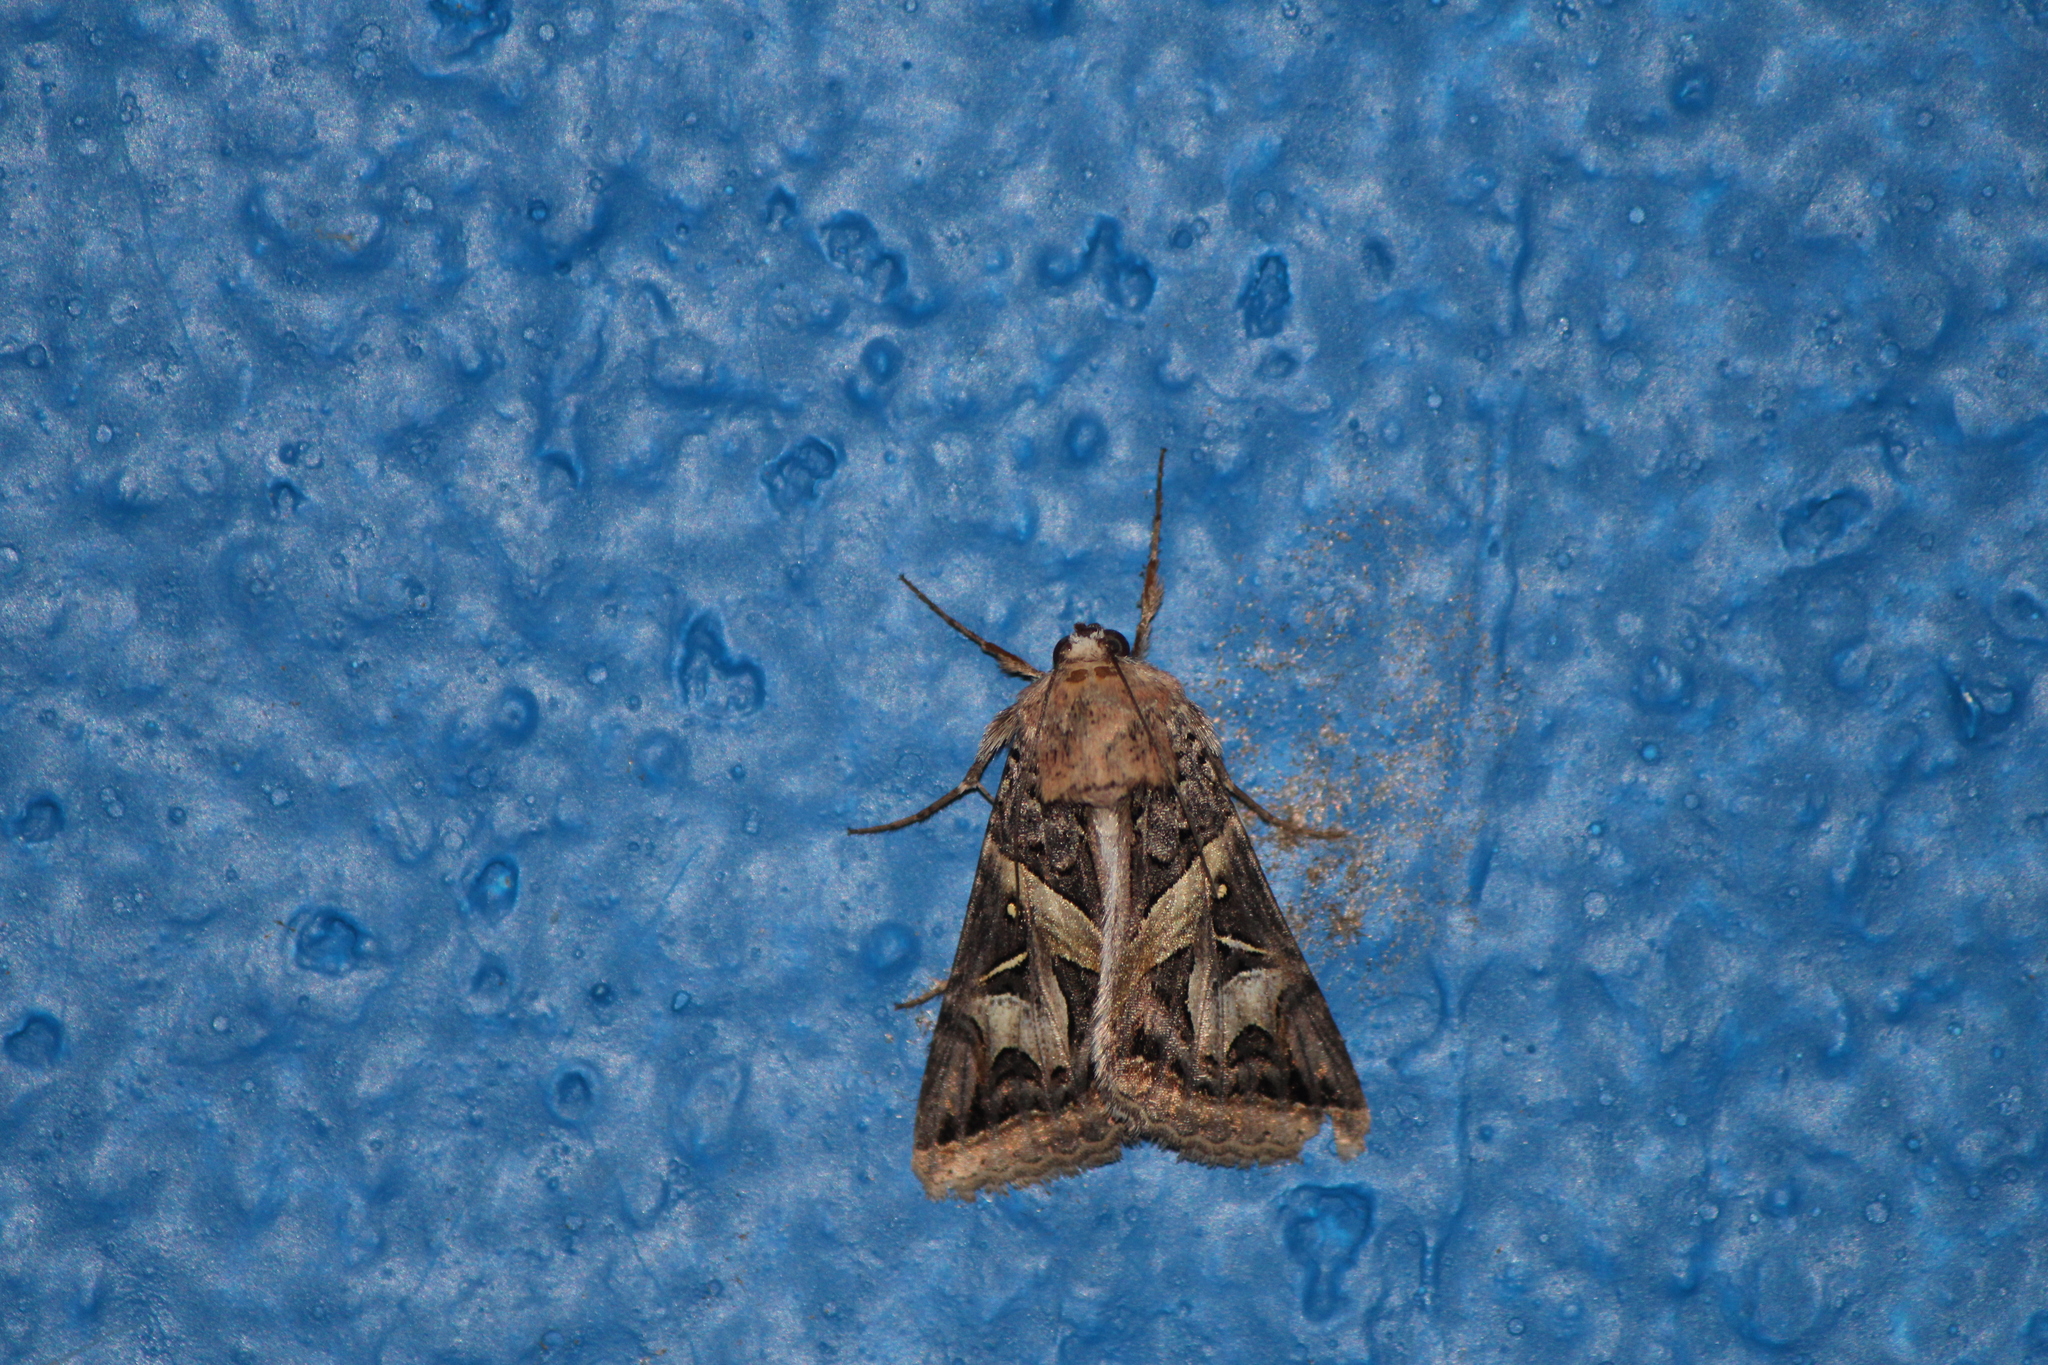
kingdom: Animalia
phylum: Arthropoda
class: Insecta
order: Lepidoptera
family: Erebidae
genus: Ianius
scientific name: Ianius mosca
